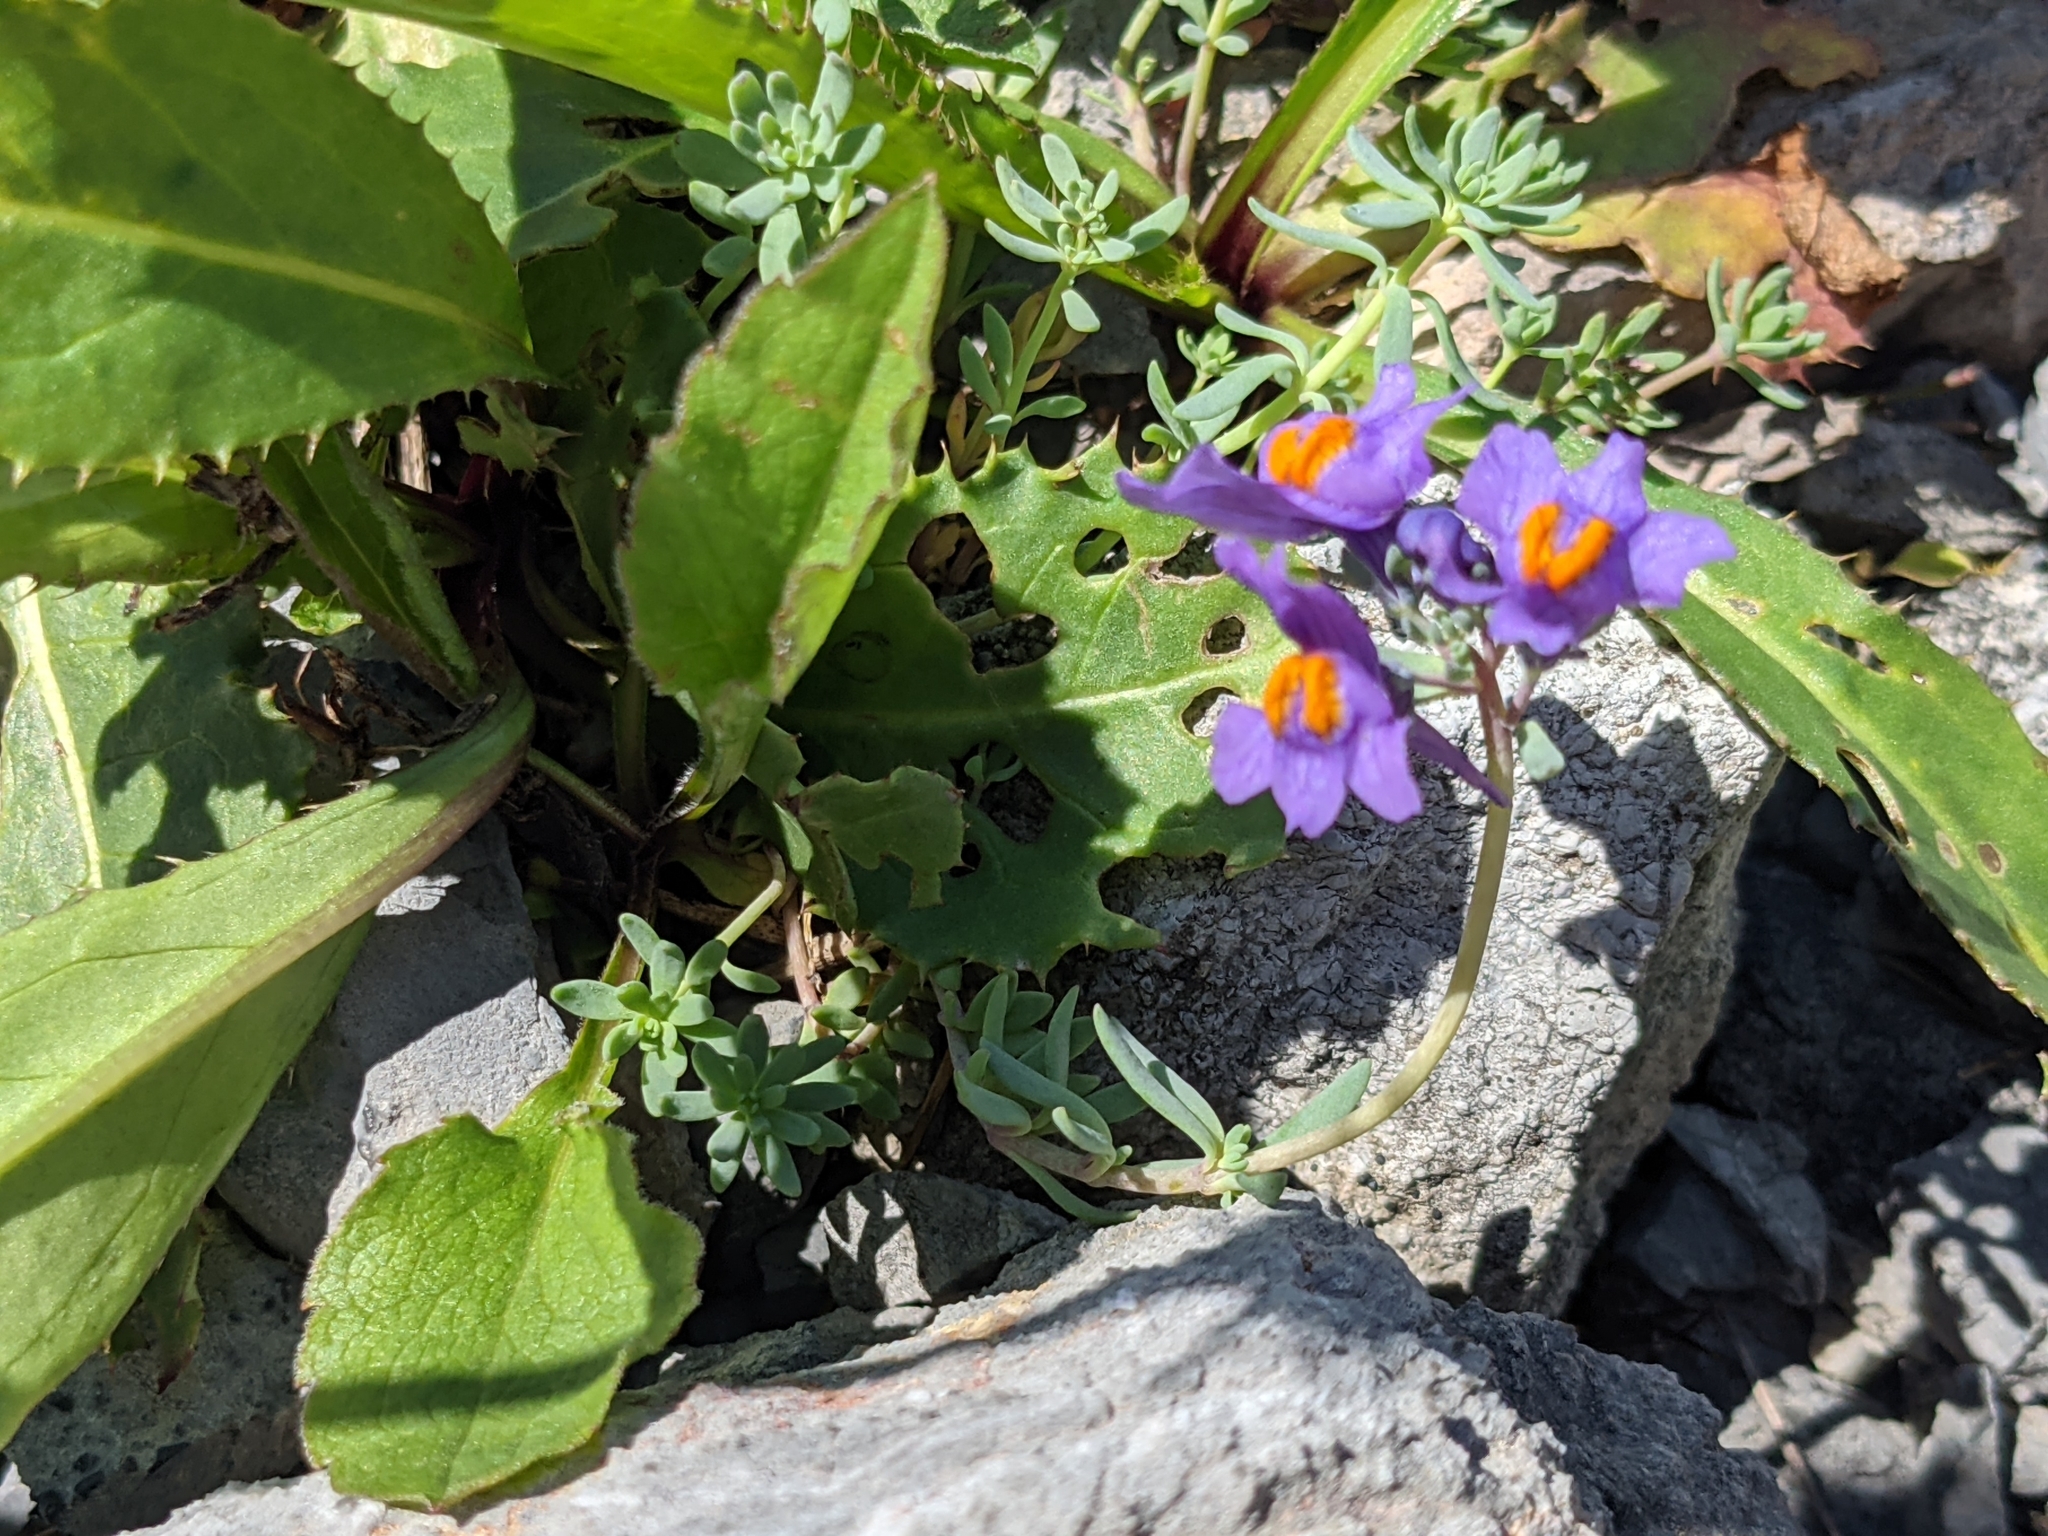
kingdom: Plantae
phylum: Tracheophyta
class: Magnoliopsida
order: Lamiales
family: Plantaginaceae
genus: Linaria
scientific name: Linaria alpina
